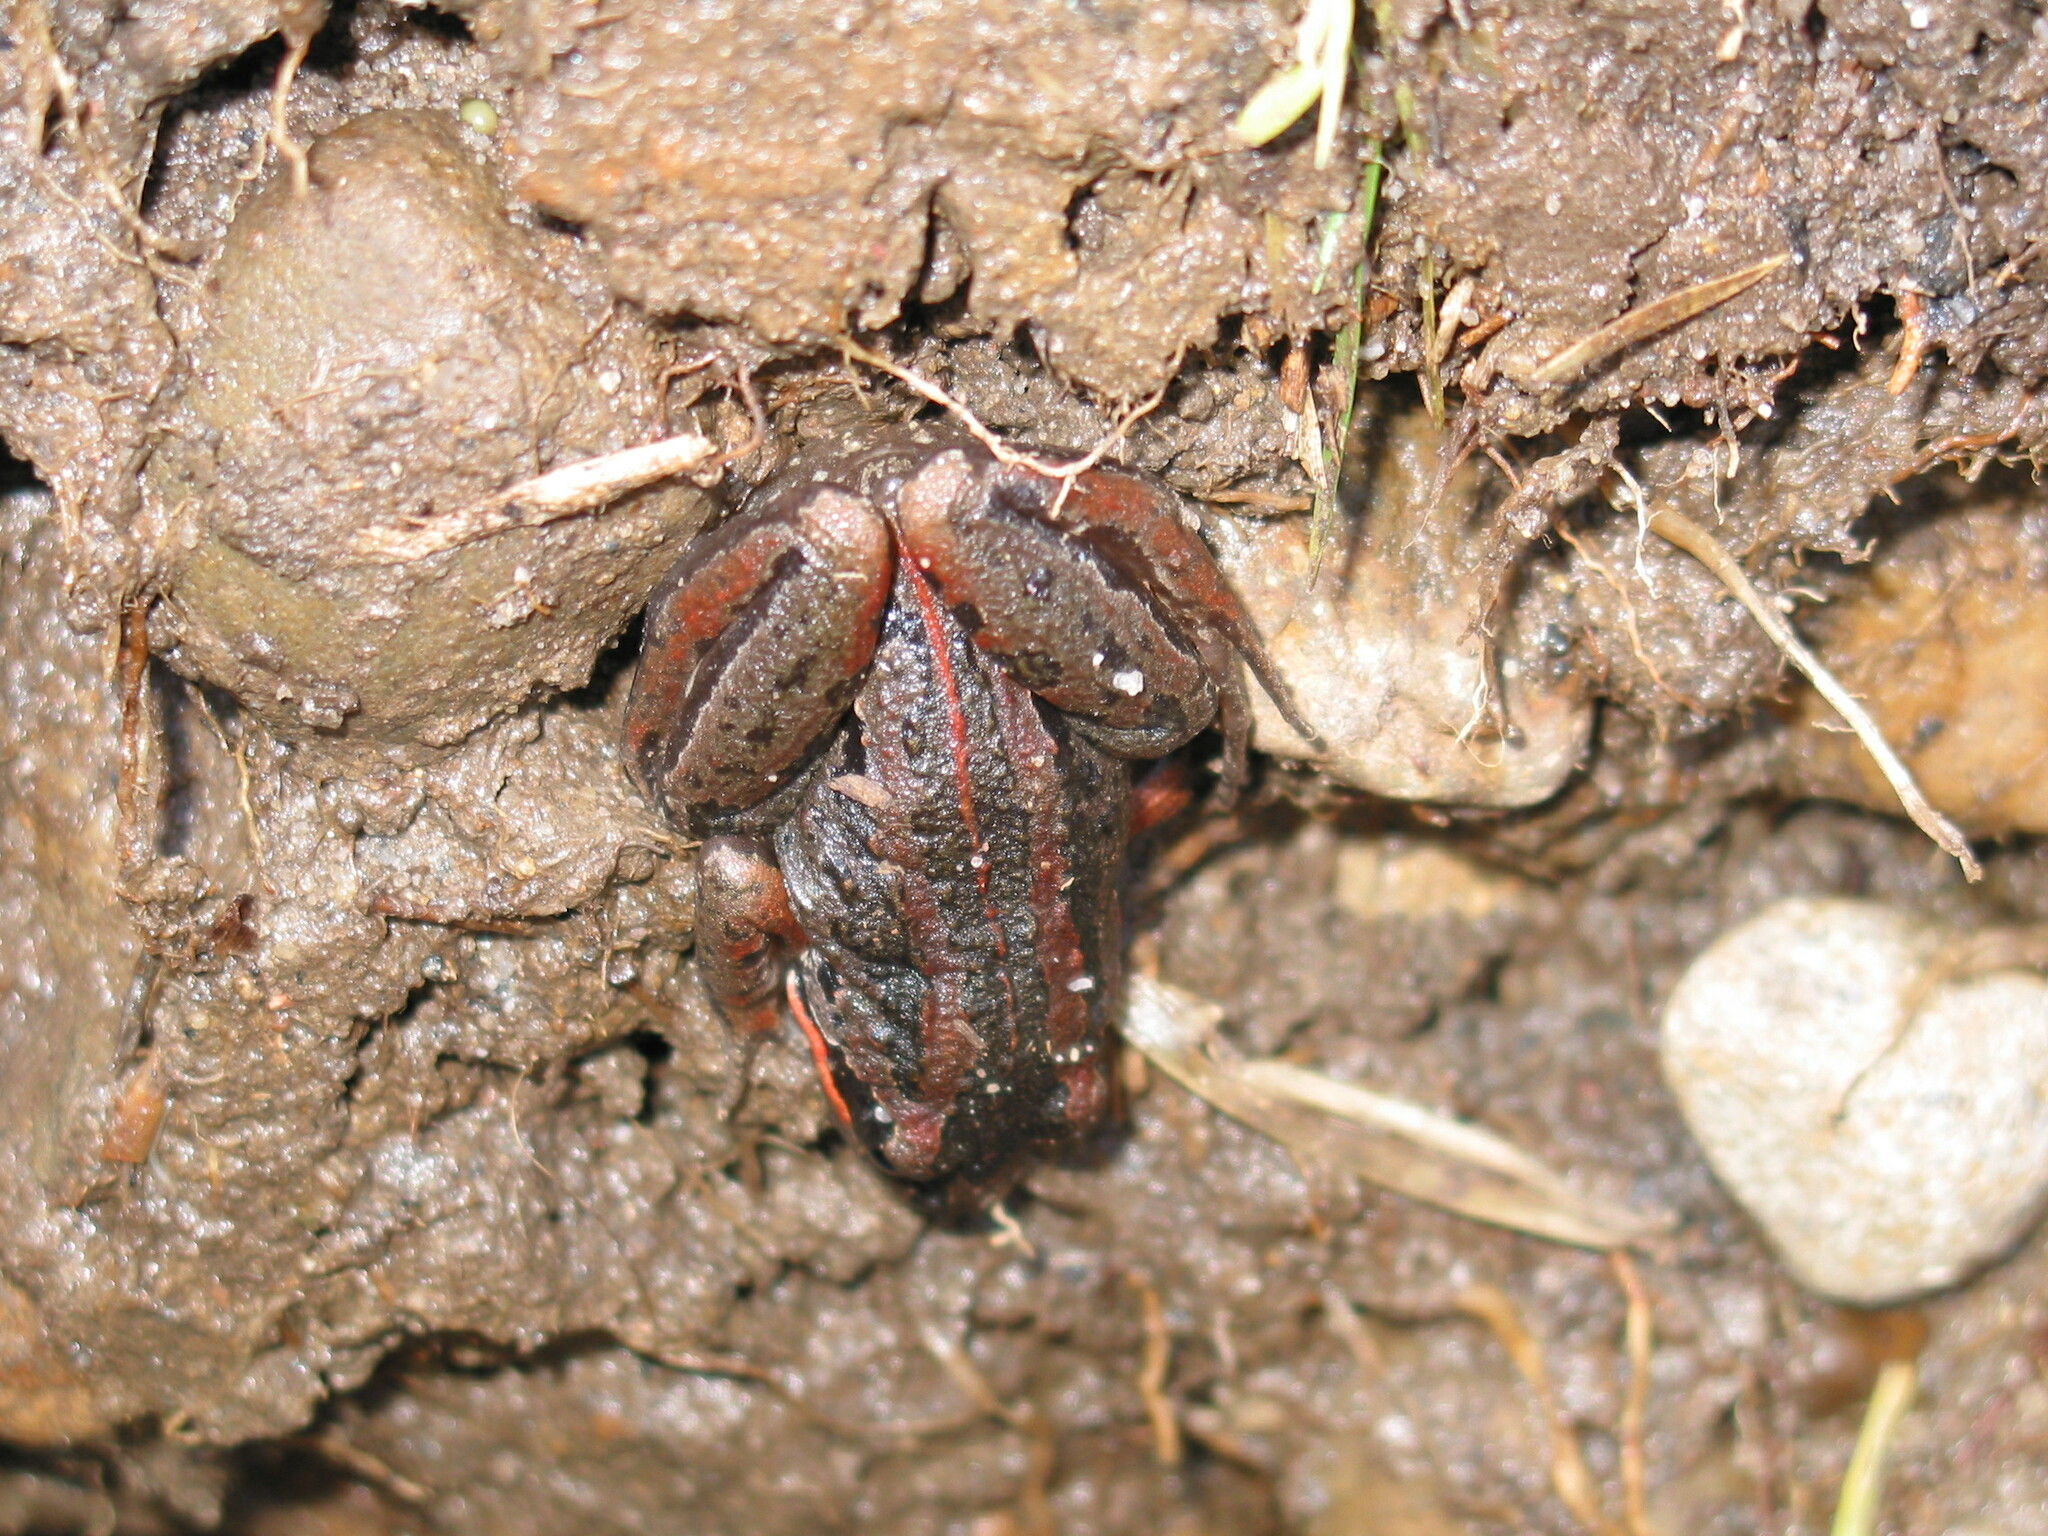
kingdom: Animalia
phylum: Chordata
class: Amphibia
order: Anura
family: Limnodynastidae
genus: Limnodynastes
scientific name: Limnodynastes peronii
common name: Brown frog
